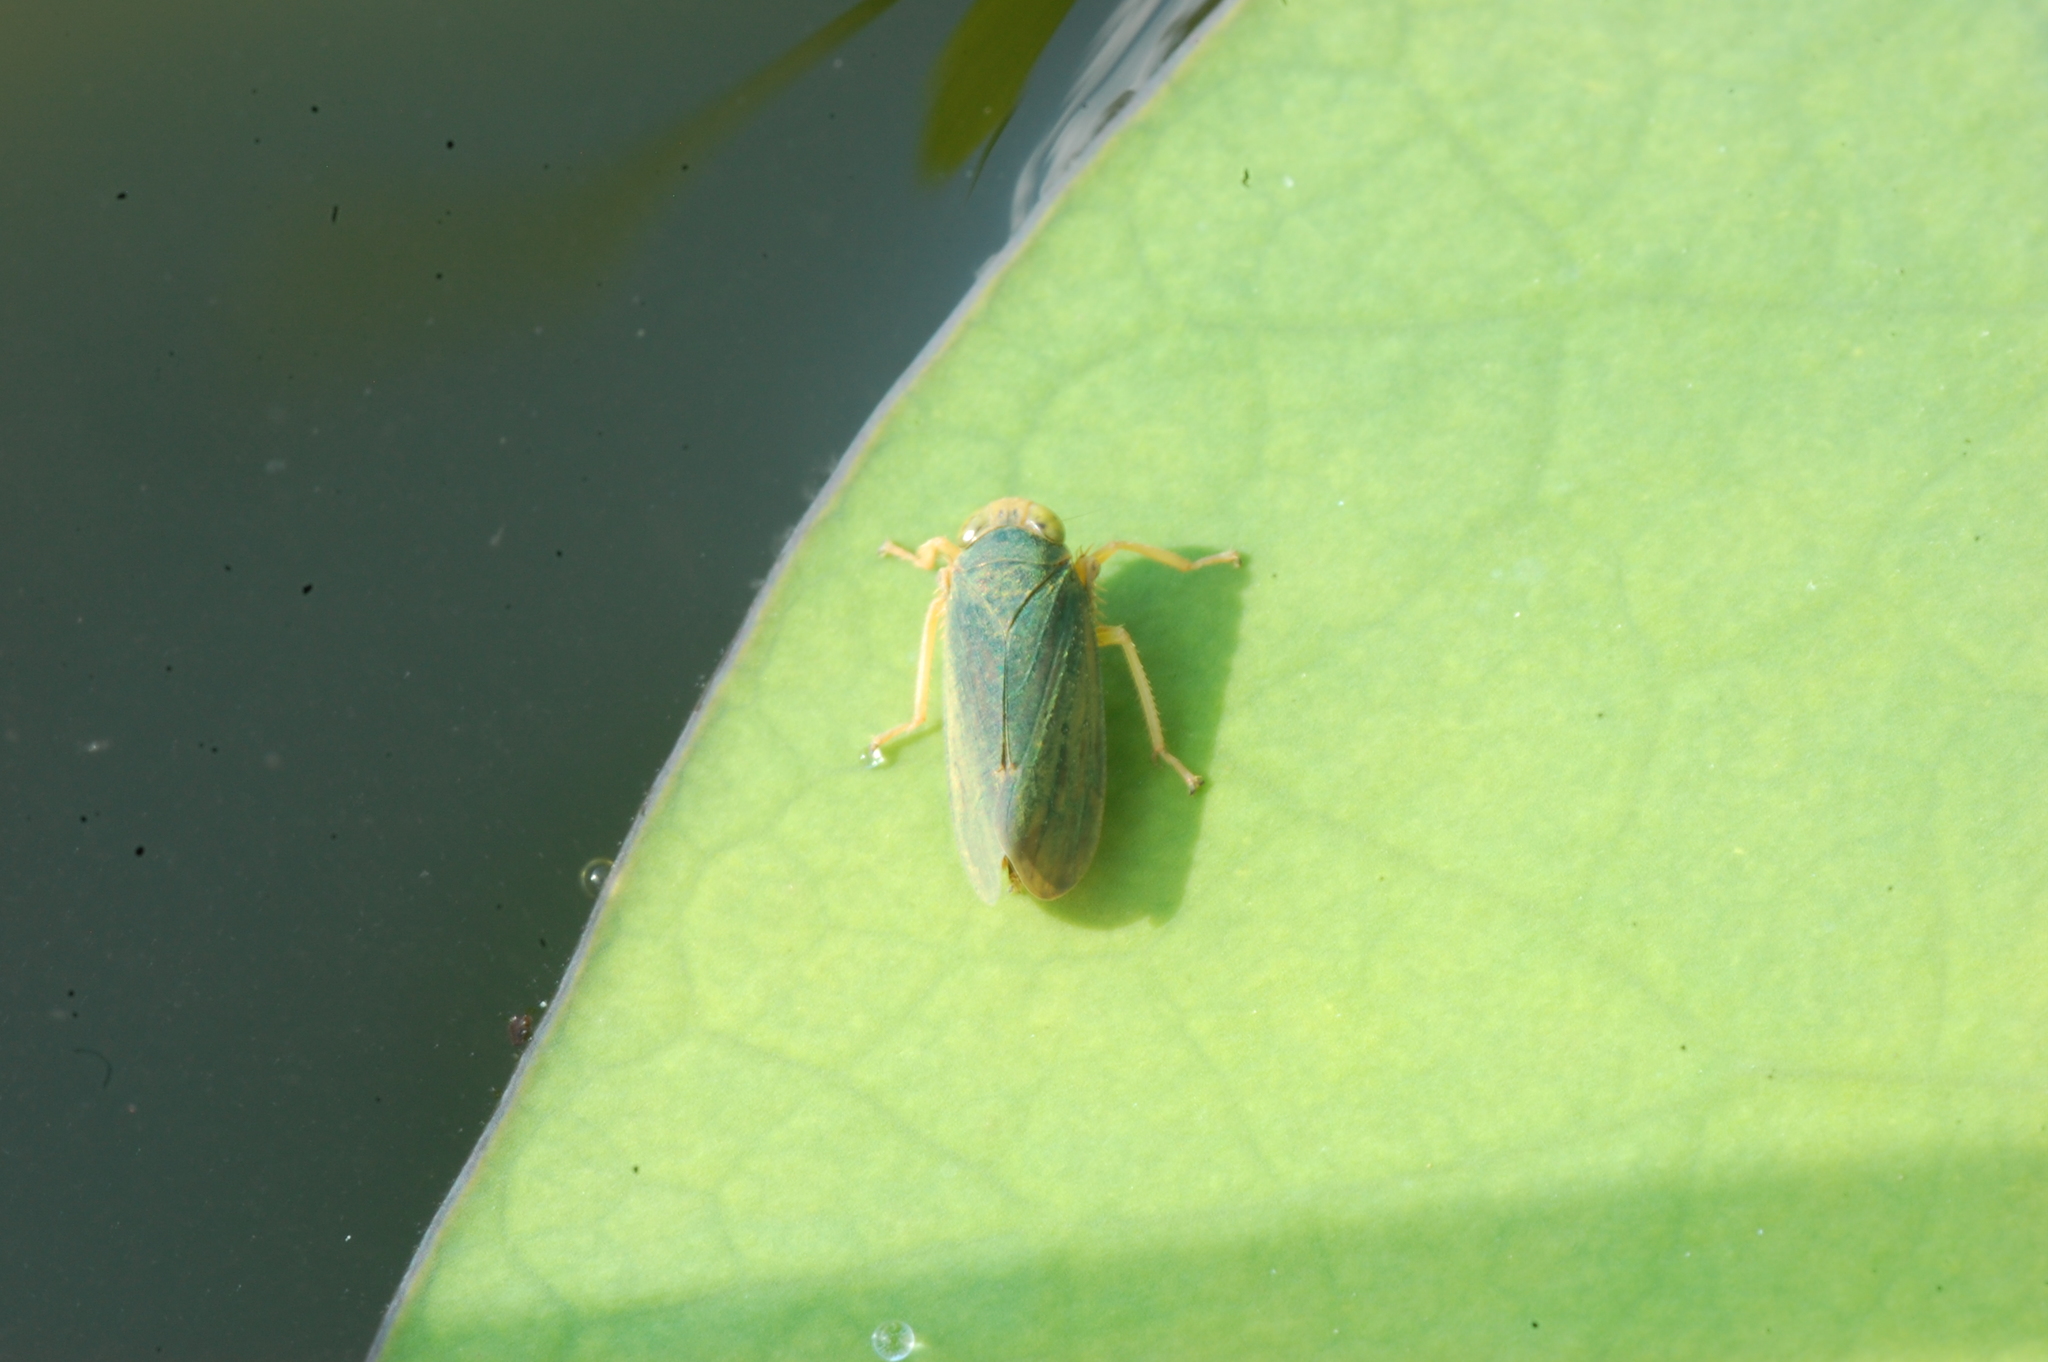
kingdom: Animalia
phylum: Arthropoda
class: Insecta
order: Hemiptera
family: Cicadellidae
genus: Jikradia
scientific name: Jikradia olitoria
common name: Coppery leafhopper
